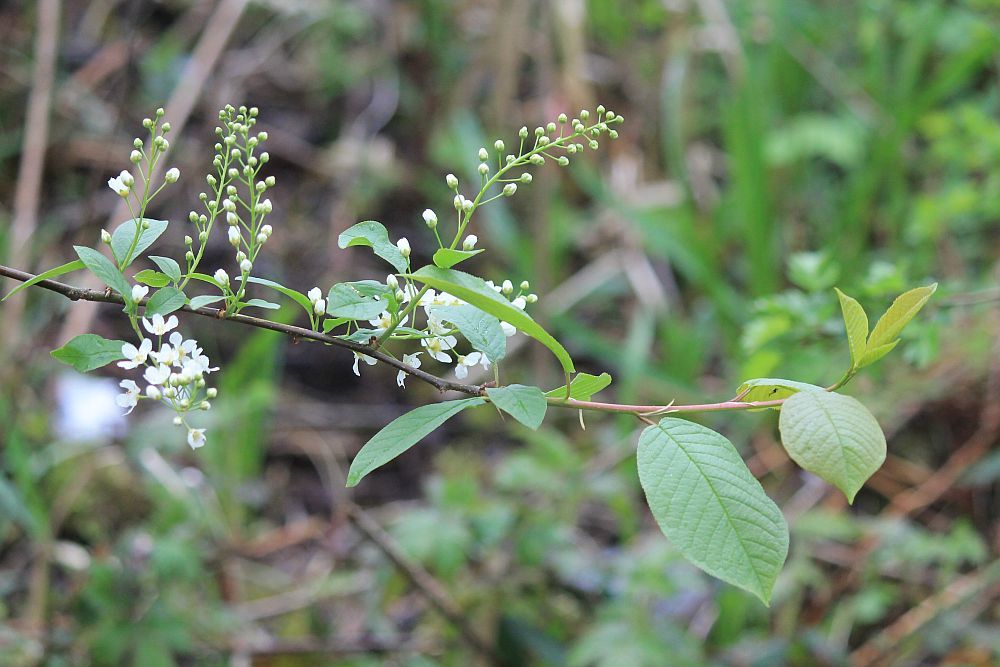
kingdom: Plantae
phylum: Tracheophyta
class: Magnoliopsida
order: Rosales
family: Rosaceae
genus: Prunus
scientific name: Prunus padus
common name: Bird cherry
